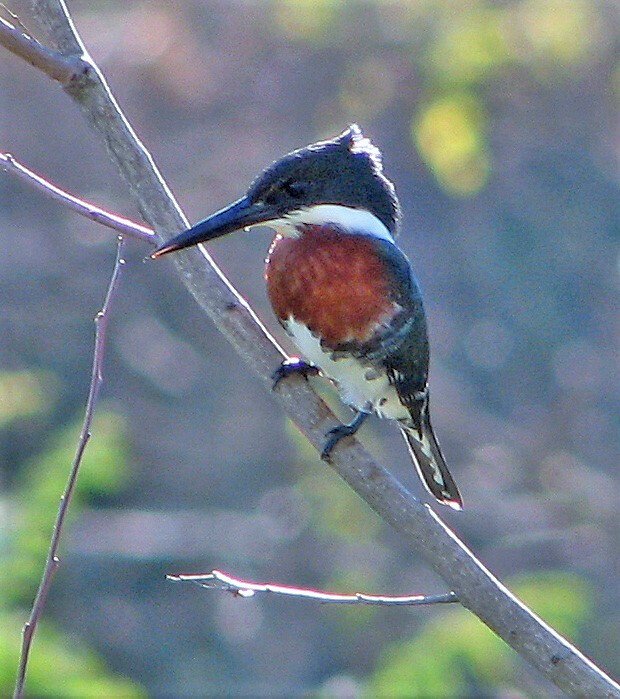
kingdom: Animalia
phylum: Chordata
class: Aves
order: Coraciiformes
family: Alcedinidae
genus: Chloroceryle
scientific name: Chloroceryle americana
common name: Green kingfisher
